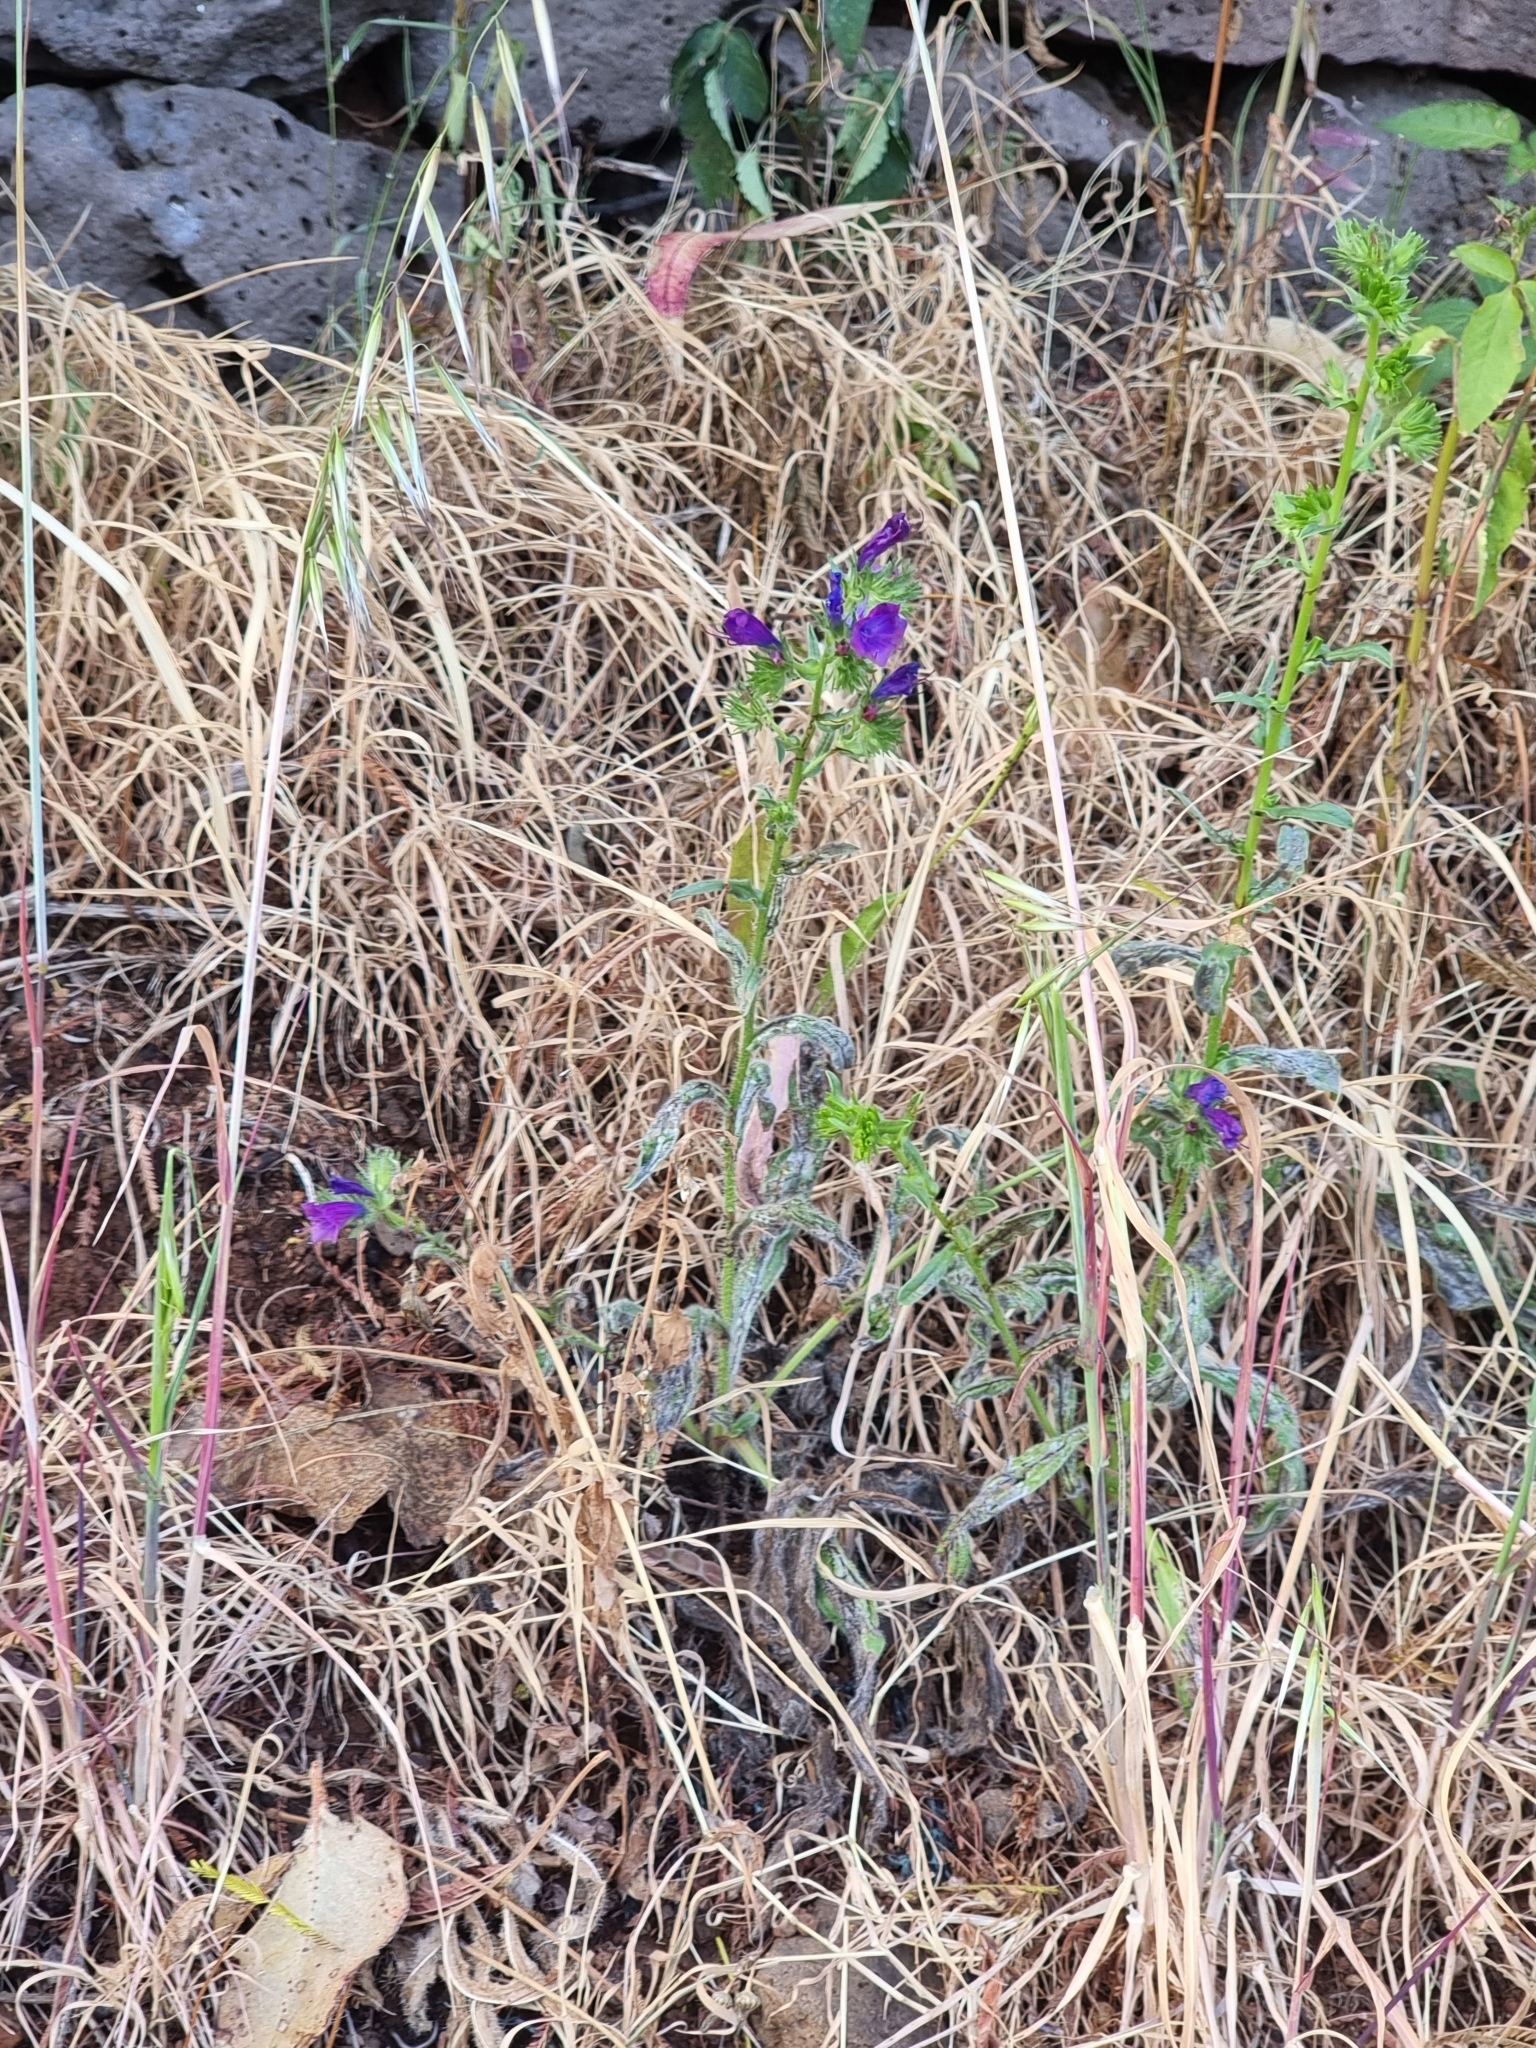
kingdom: Plantae
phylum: Tracheophyta
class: Magnoliopsida
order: Boraginales
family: Boraginaceae
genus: Echium
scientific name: Echium plantagineum
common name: Purple viper's-bugloss
